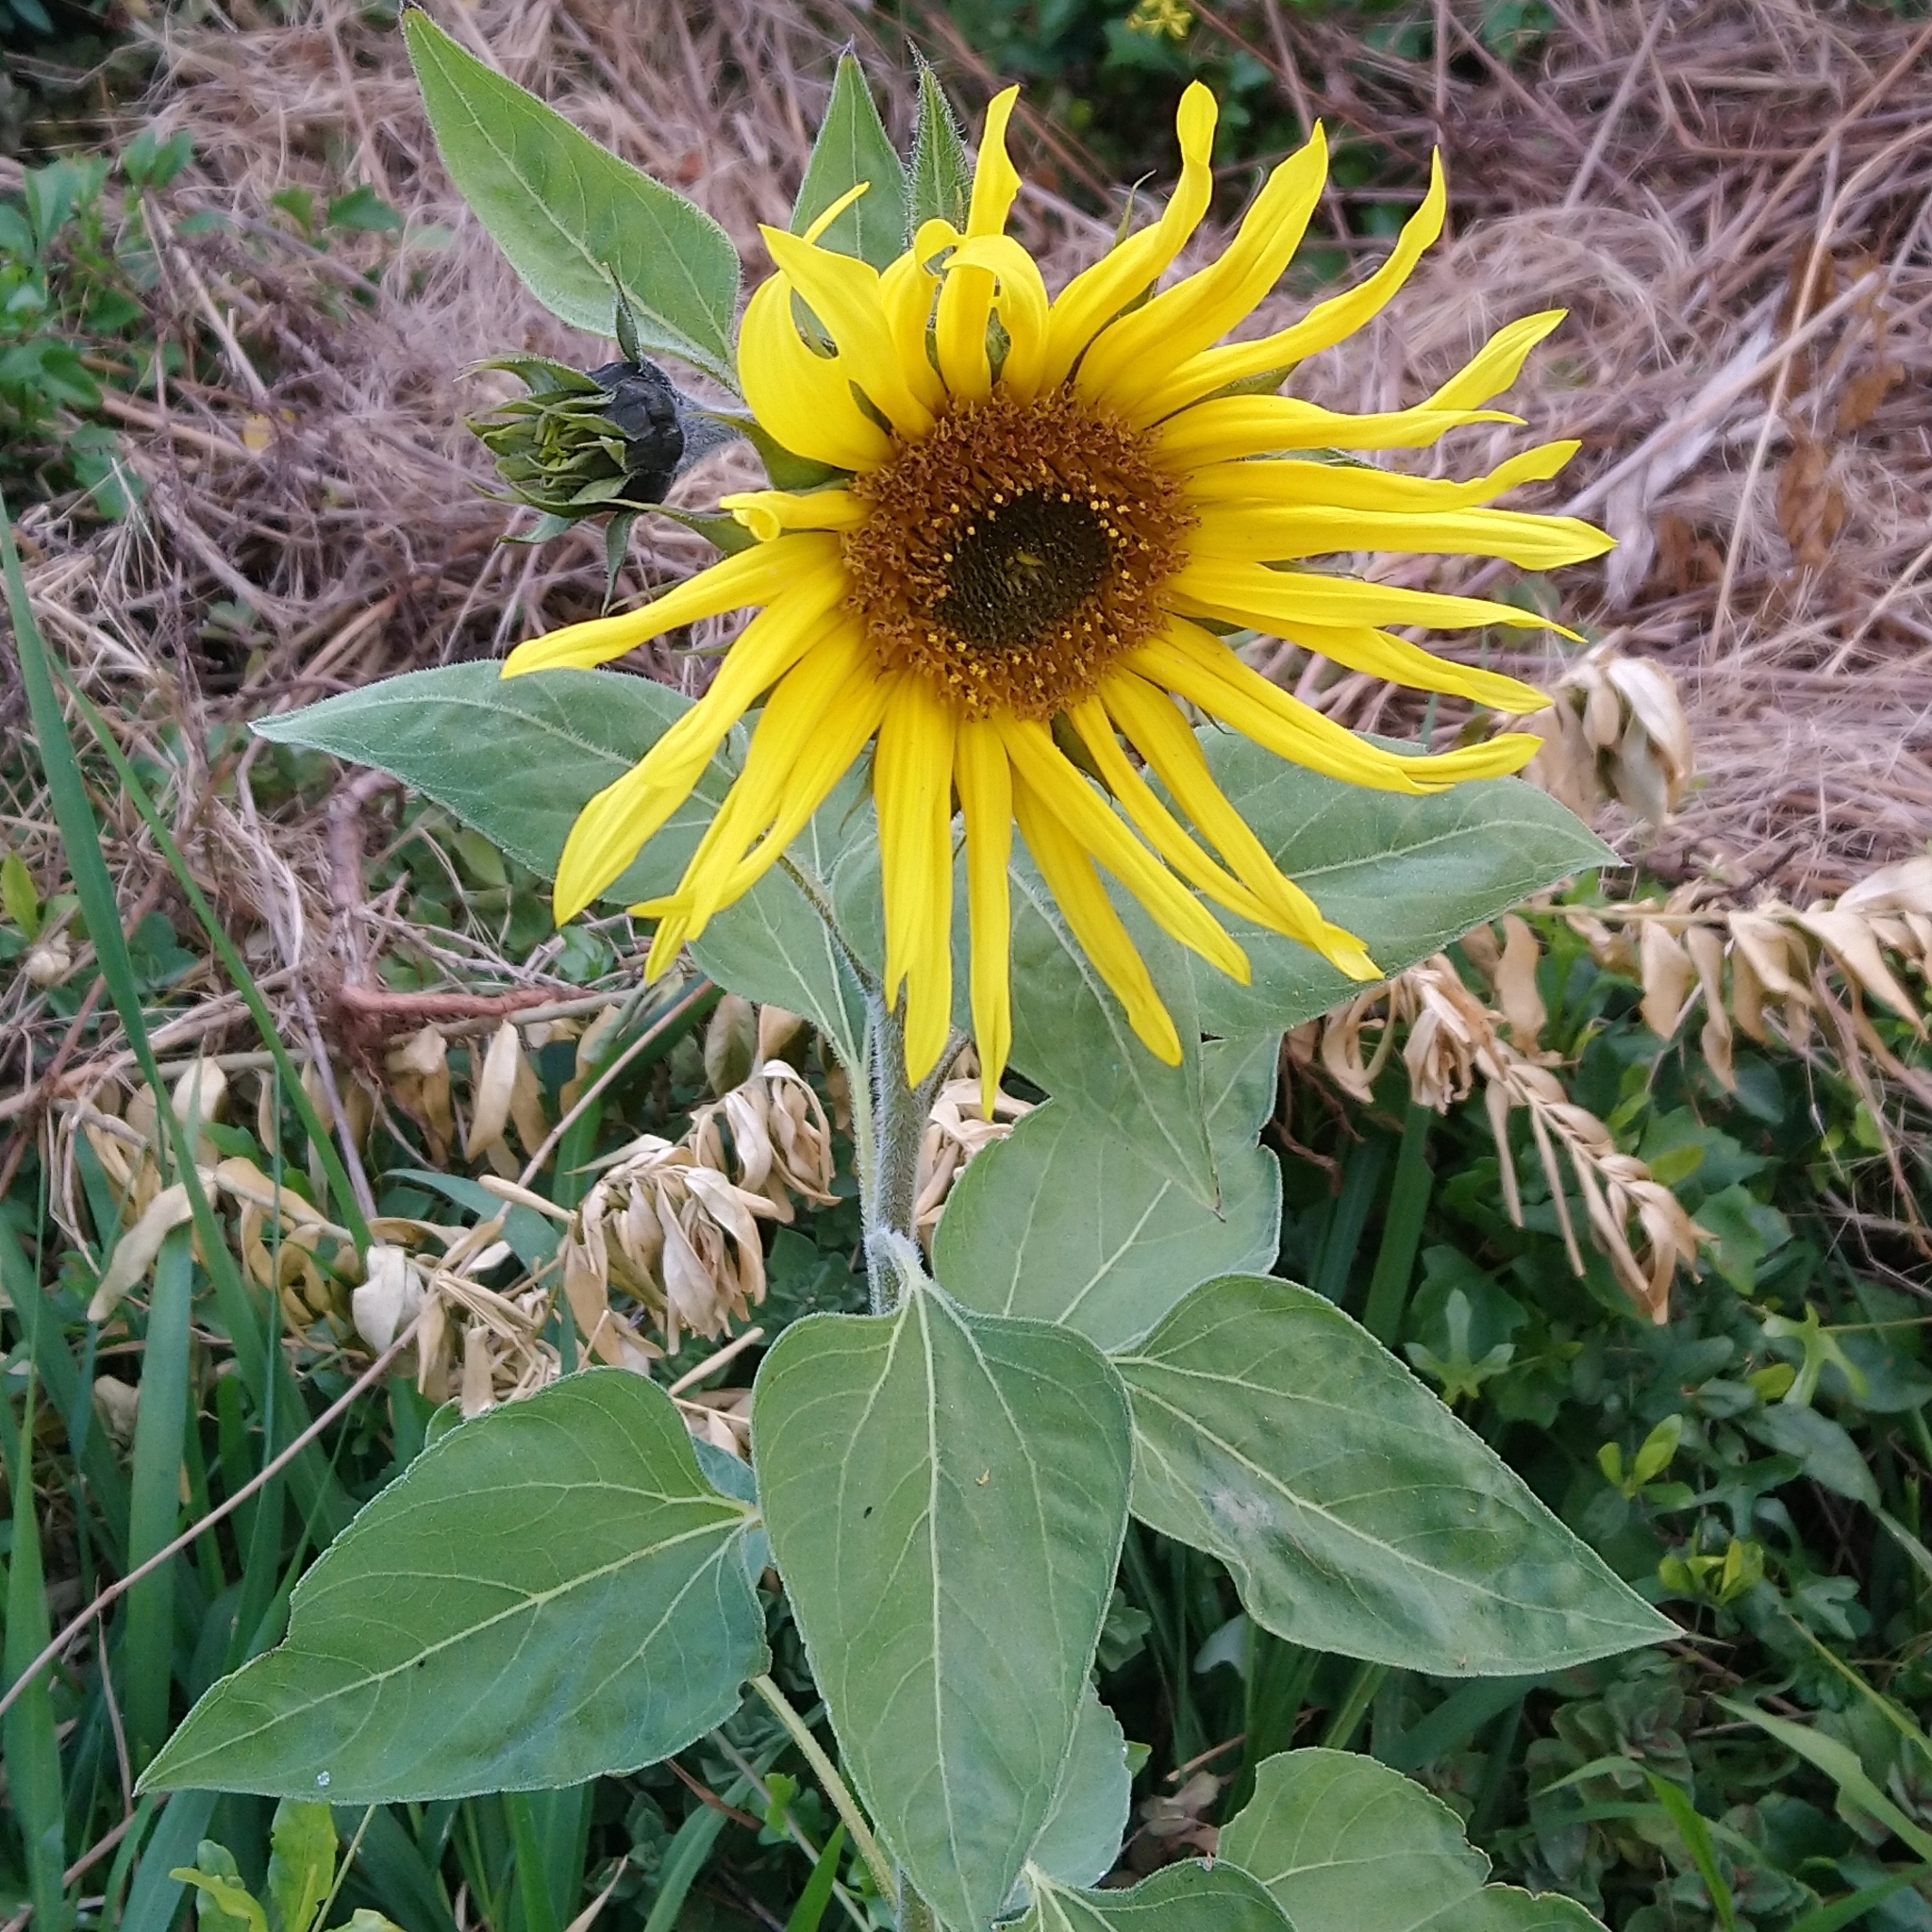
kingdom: Plantae
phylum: Tracheophyta
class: Magnoliopsida
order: Asterales
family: Asteraceae
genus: Helianthus
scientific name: Helianthus annuus
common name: Sunflower
